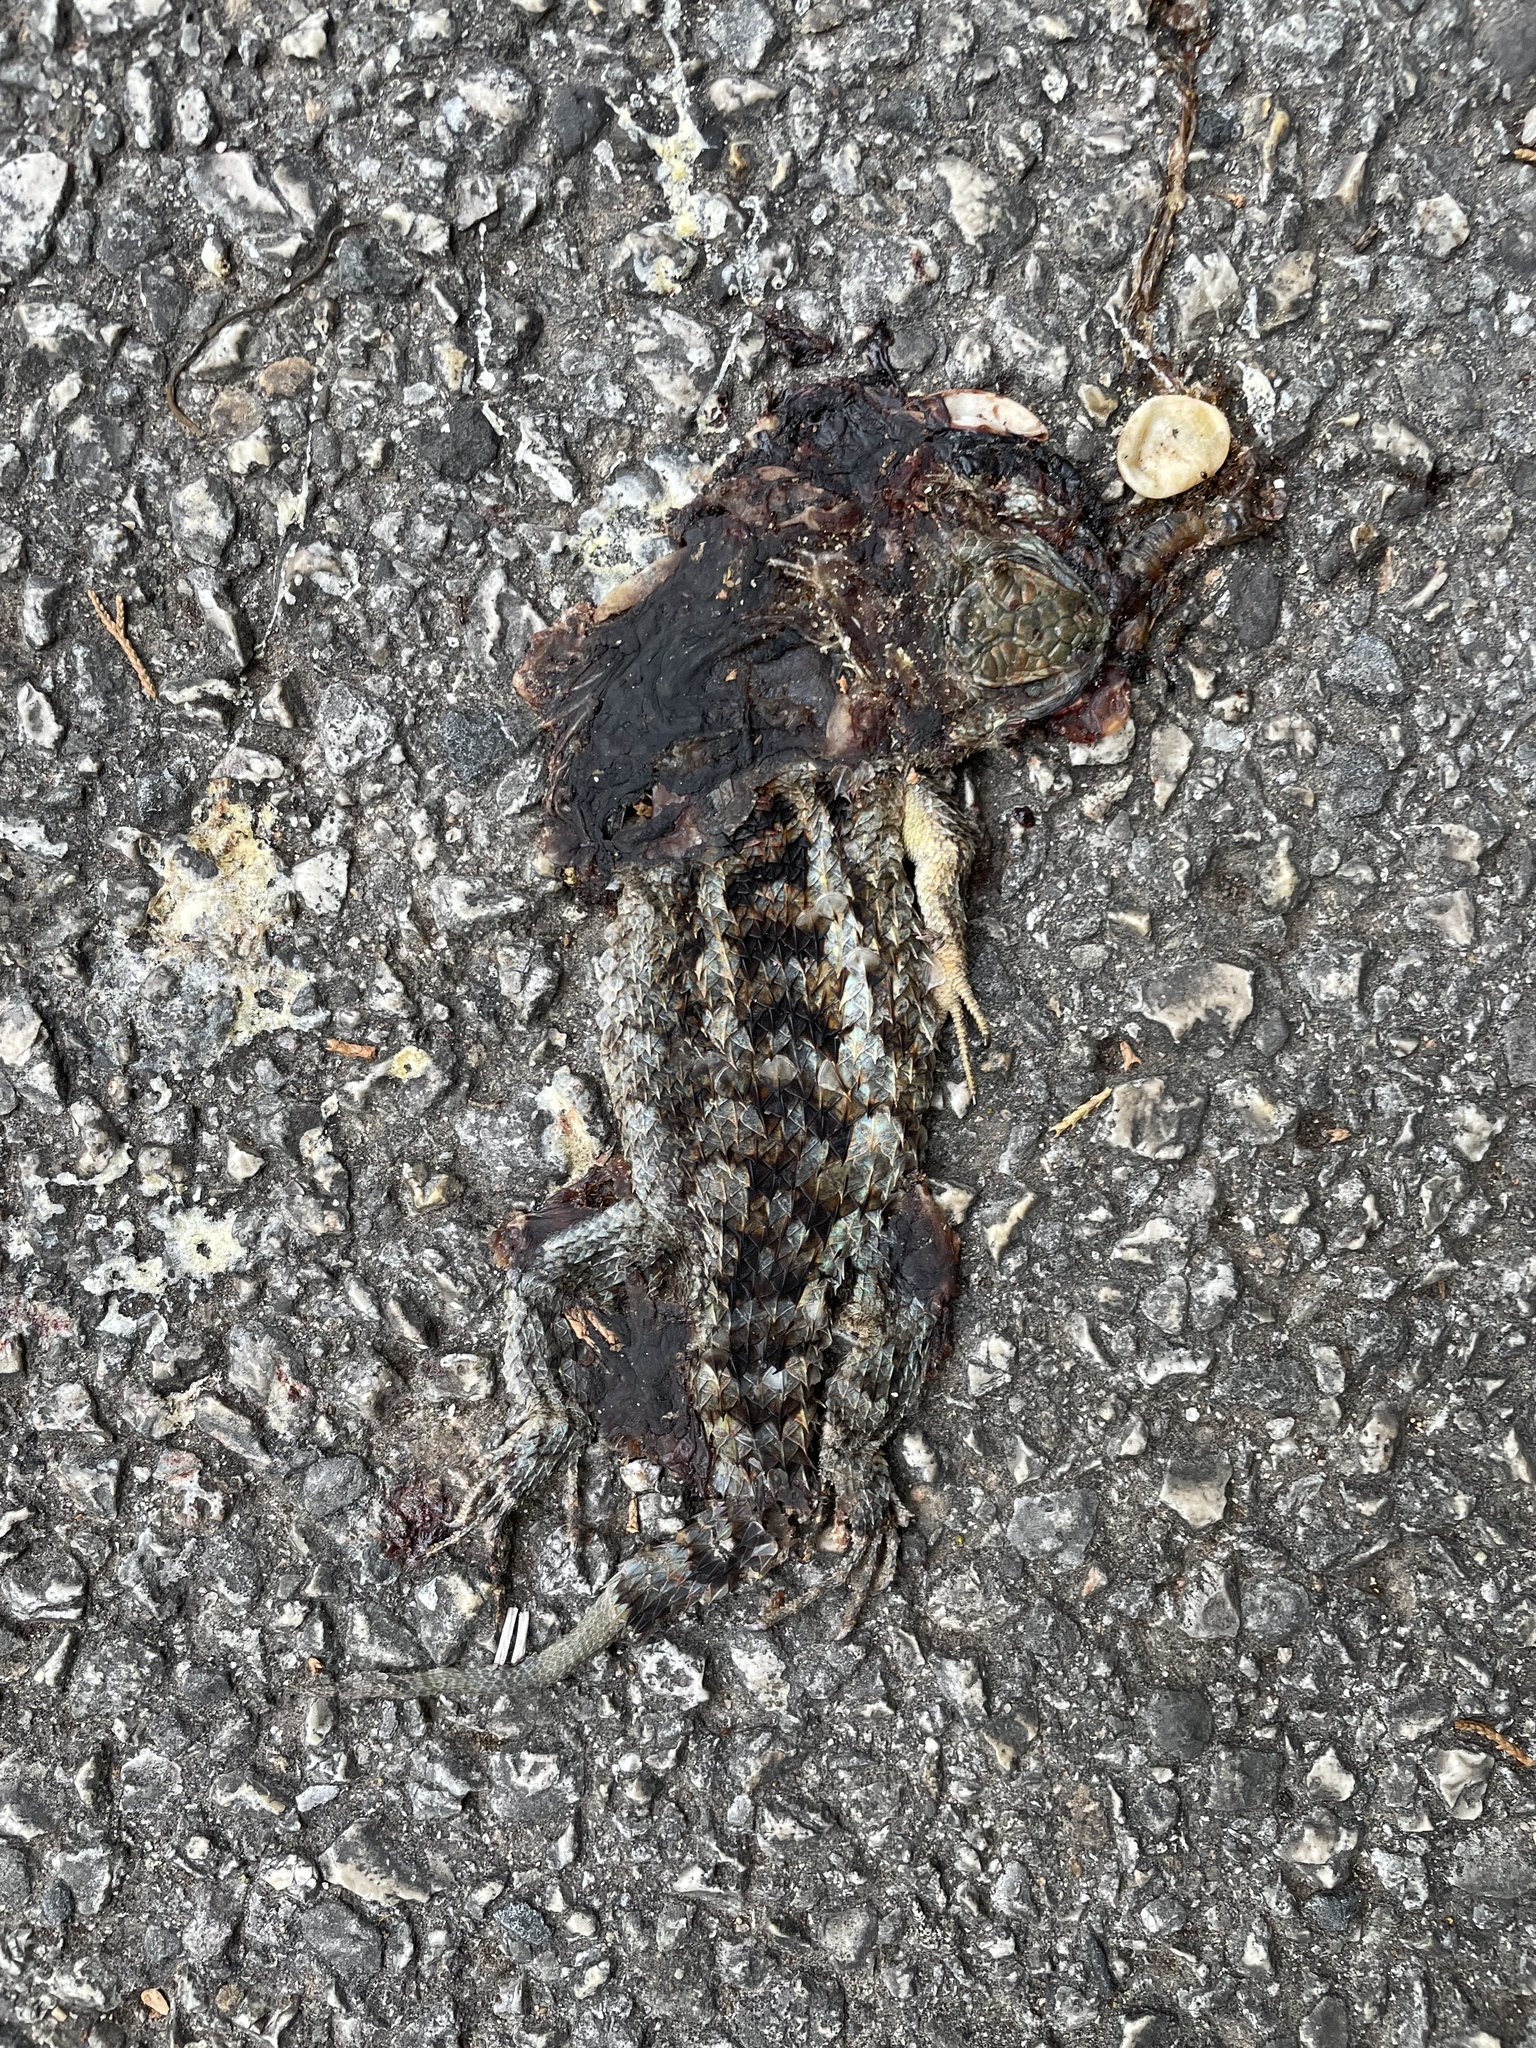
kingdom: Animalia
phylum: Chordata
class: Squamata
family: Phrynosomatidae
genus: Sceloporus
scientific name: Sceloporus olivaceus
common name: Texas spiny lizard
